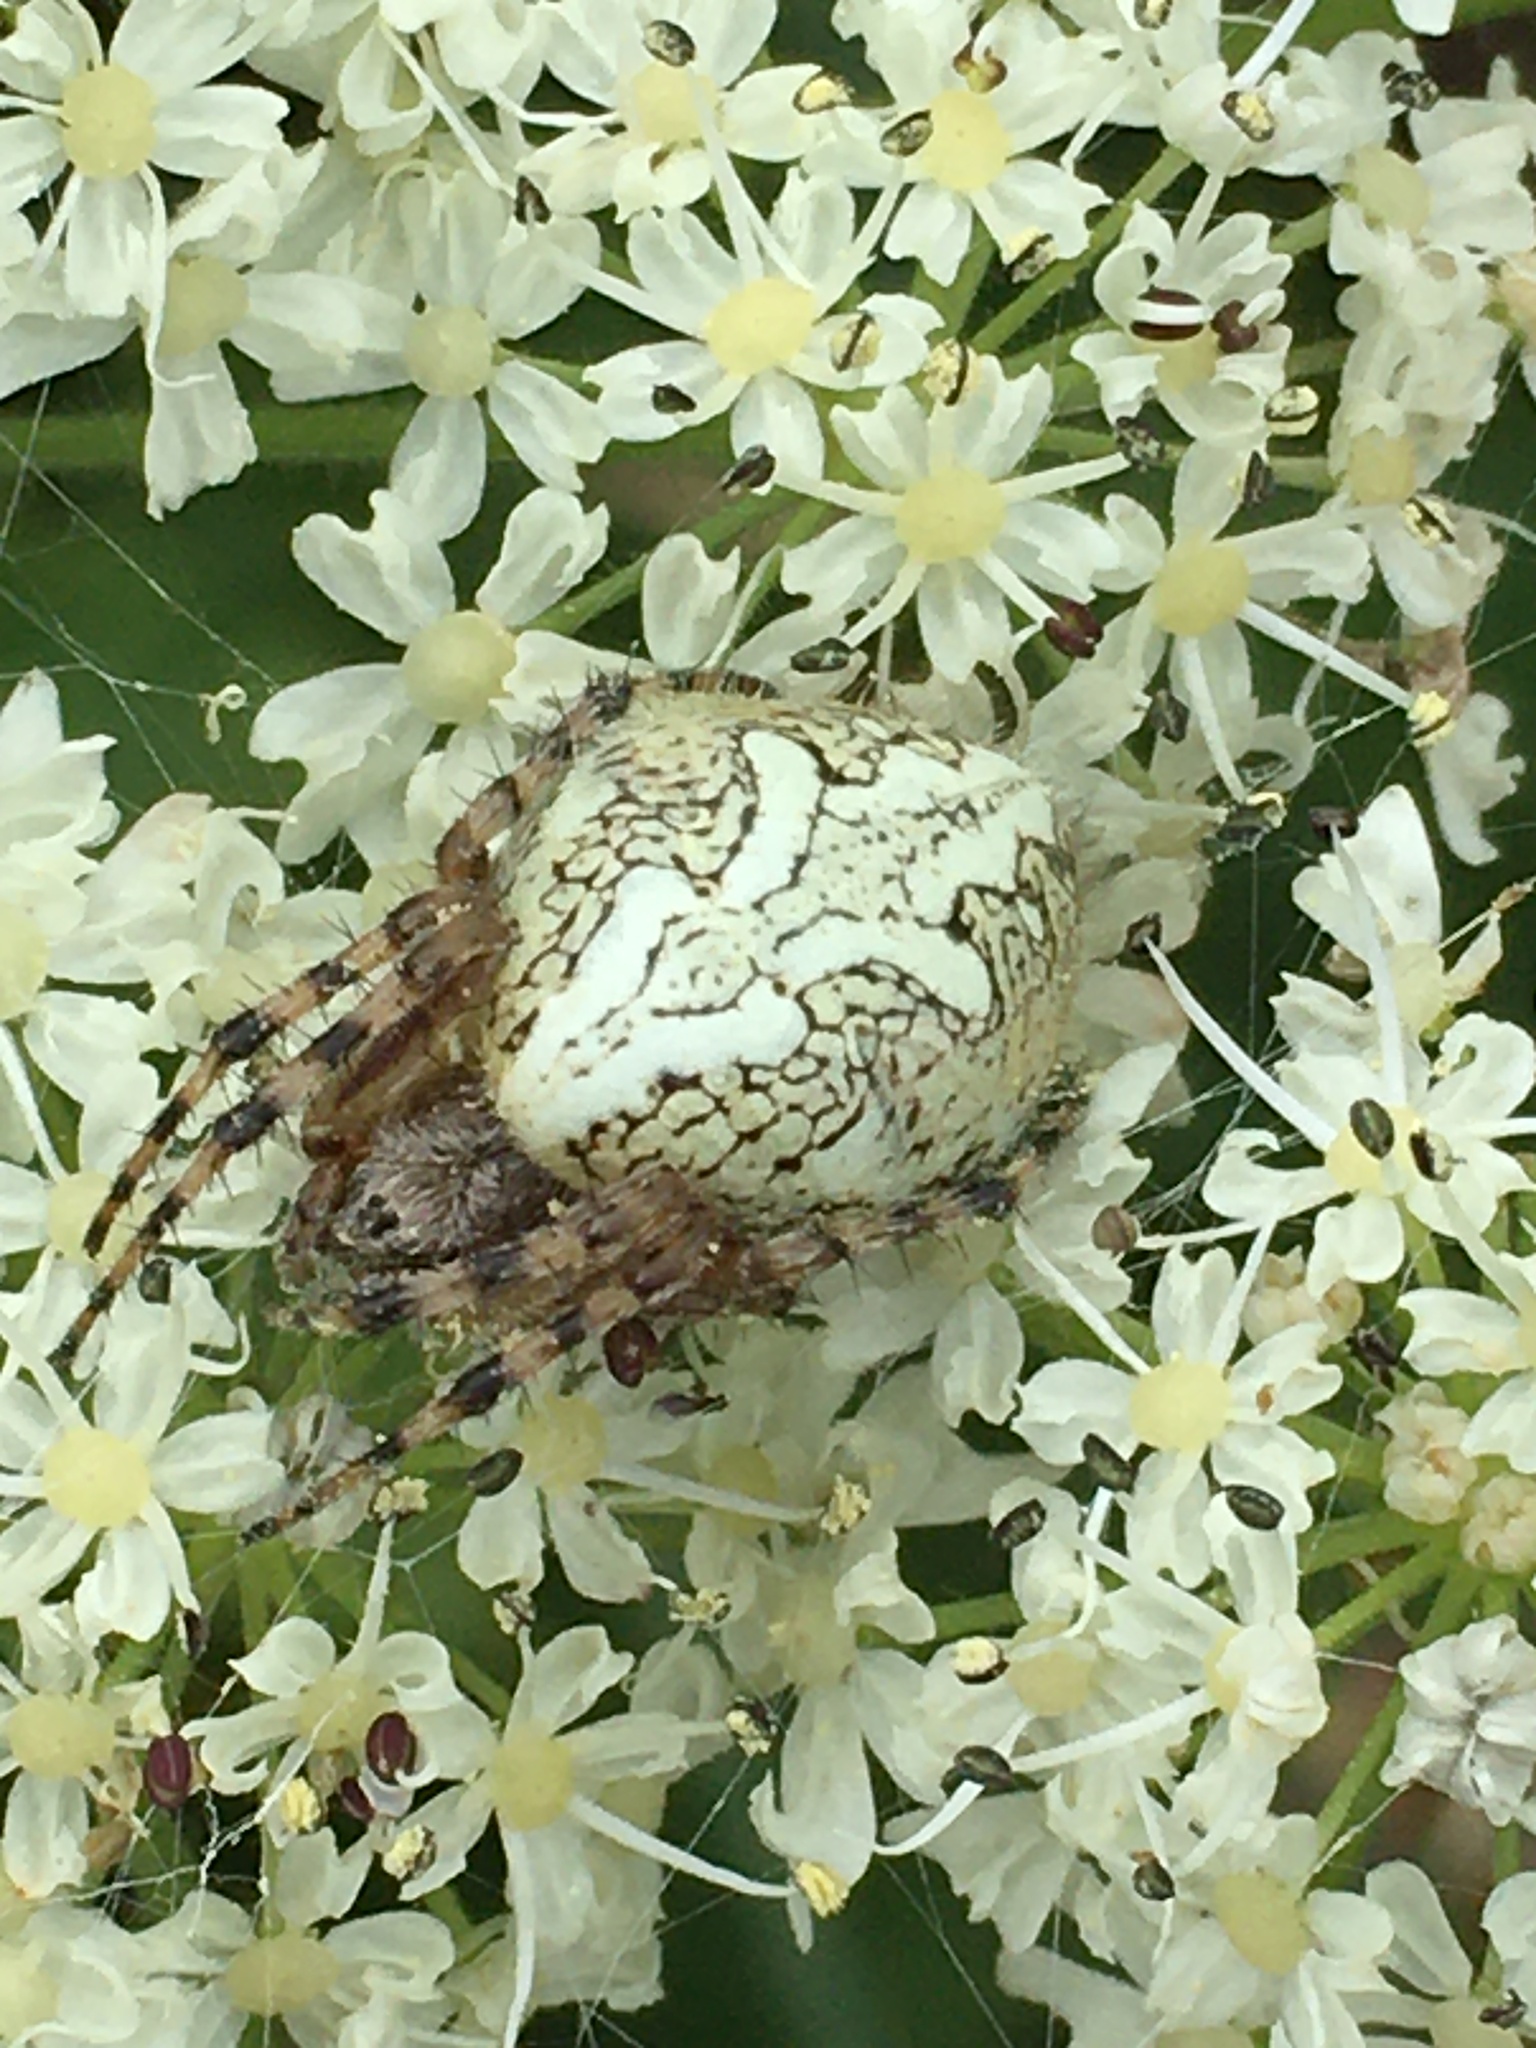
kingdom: Animalia
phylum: Arthropoda
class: Arachnida
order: Araneae
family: Araneidae
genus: Aculepeira
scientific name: Aculepeira ceropegia
